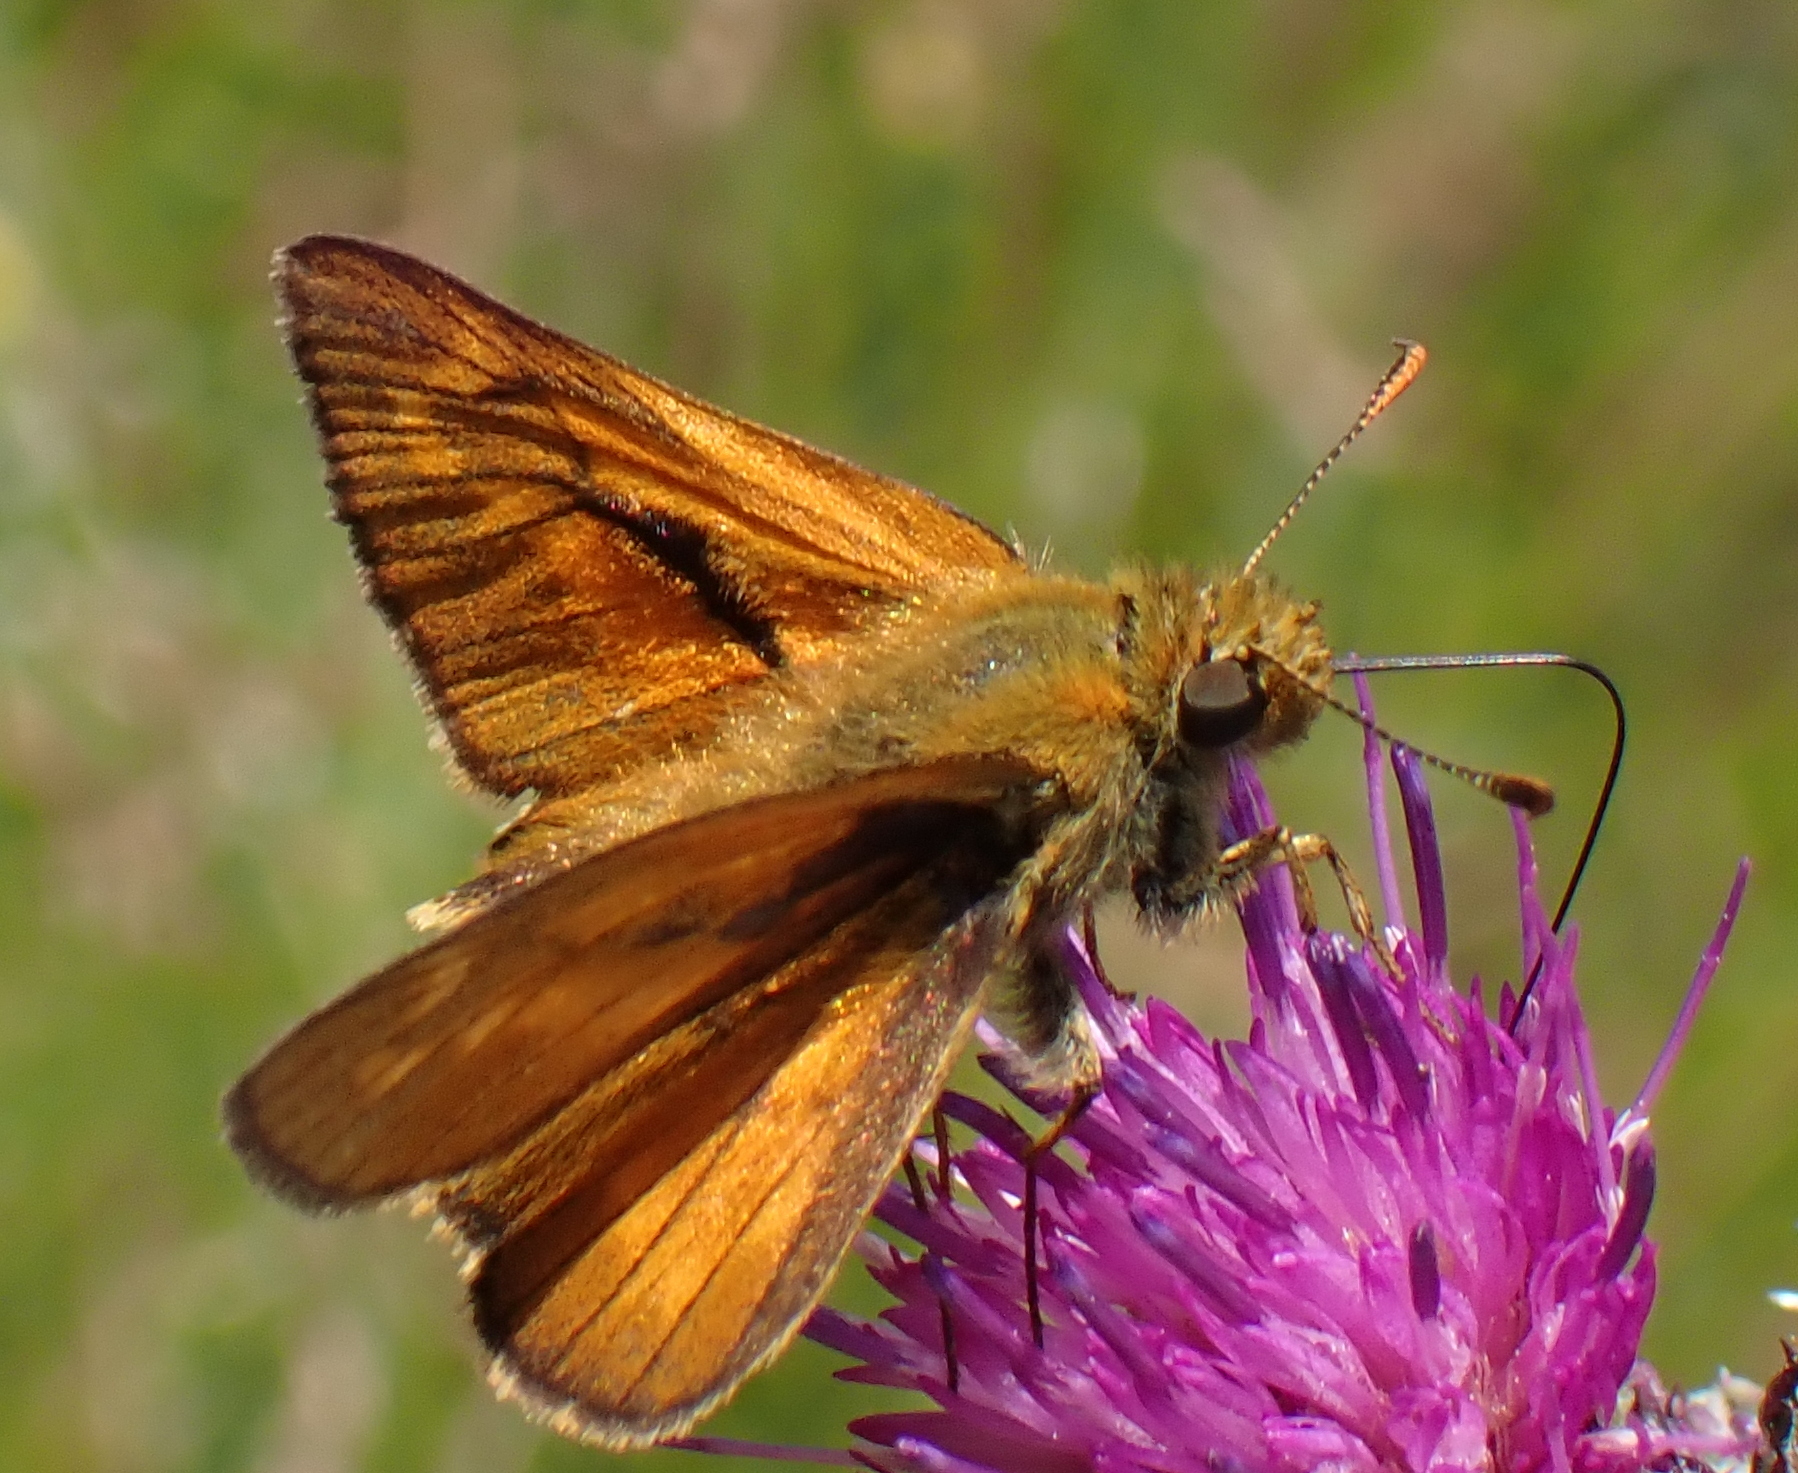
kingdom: Animalia
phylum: Arthropoda
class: Insecta
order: Lepidoptera
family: Hesperiidae
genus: Ochlodes
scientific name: Ochlodes venata
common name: Large skipper
